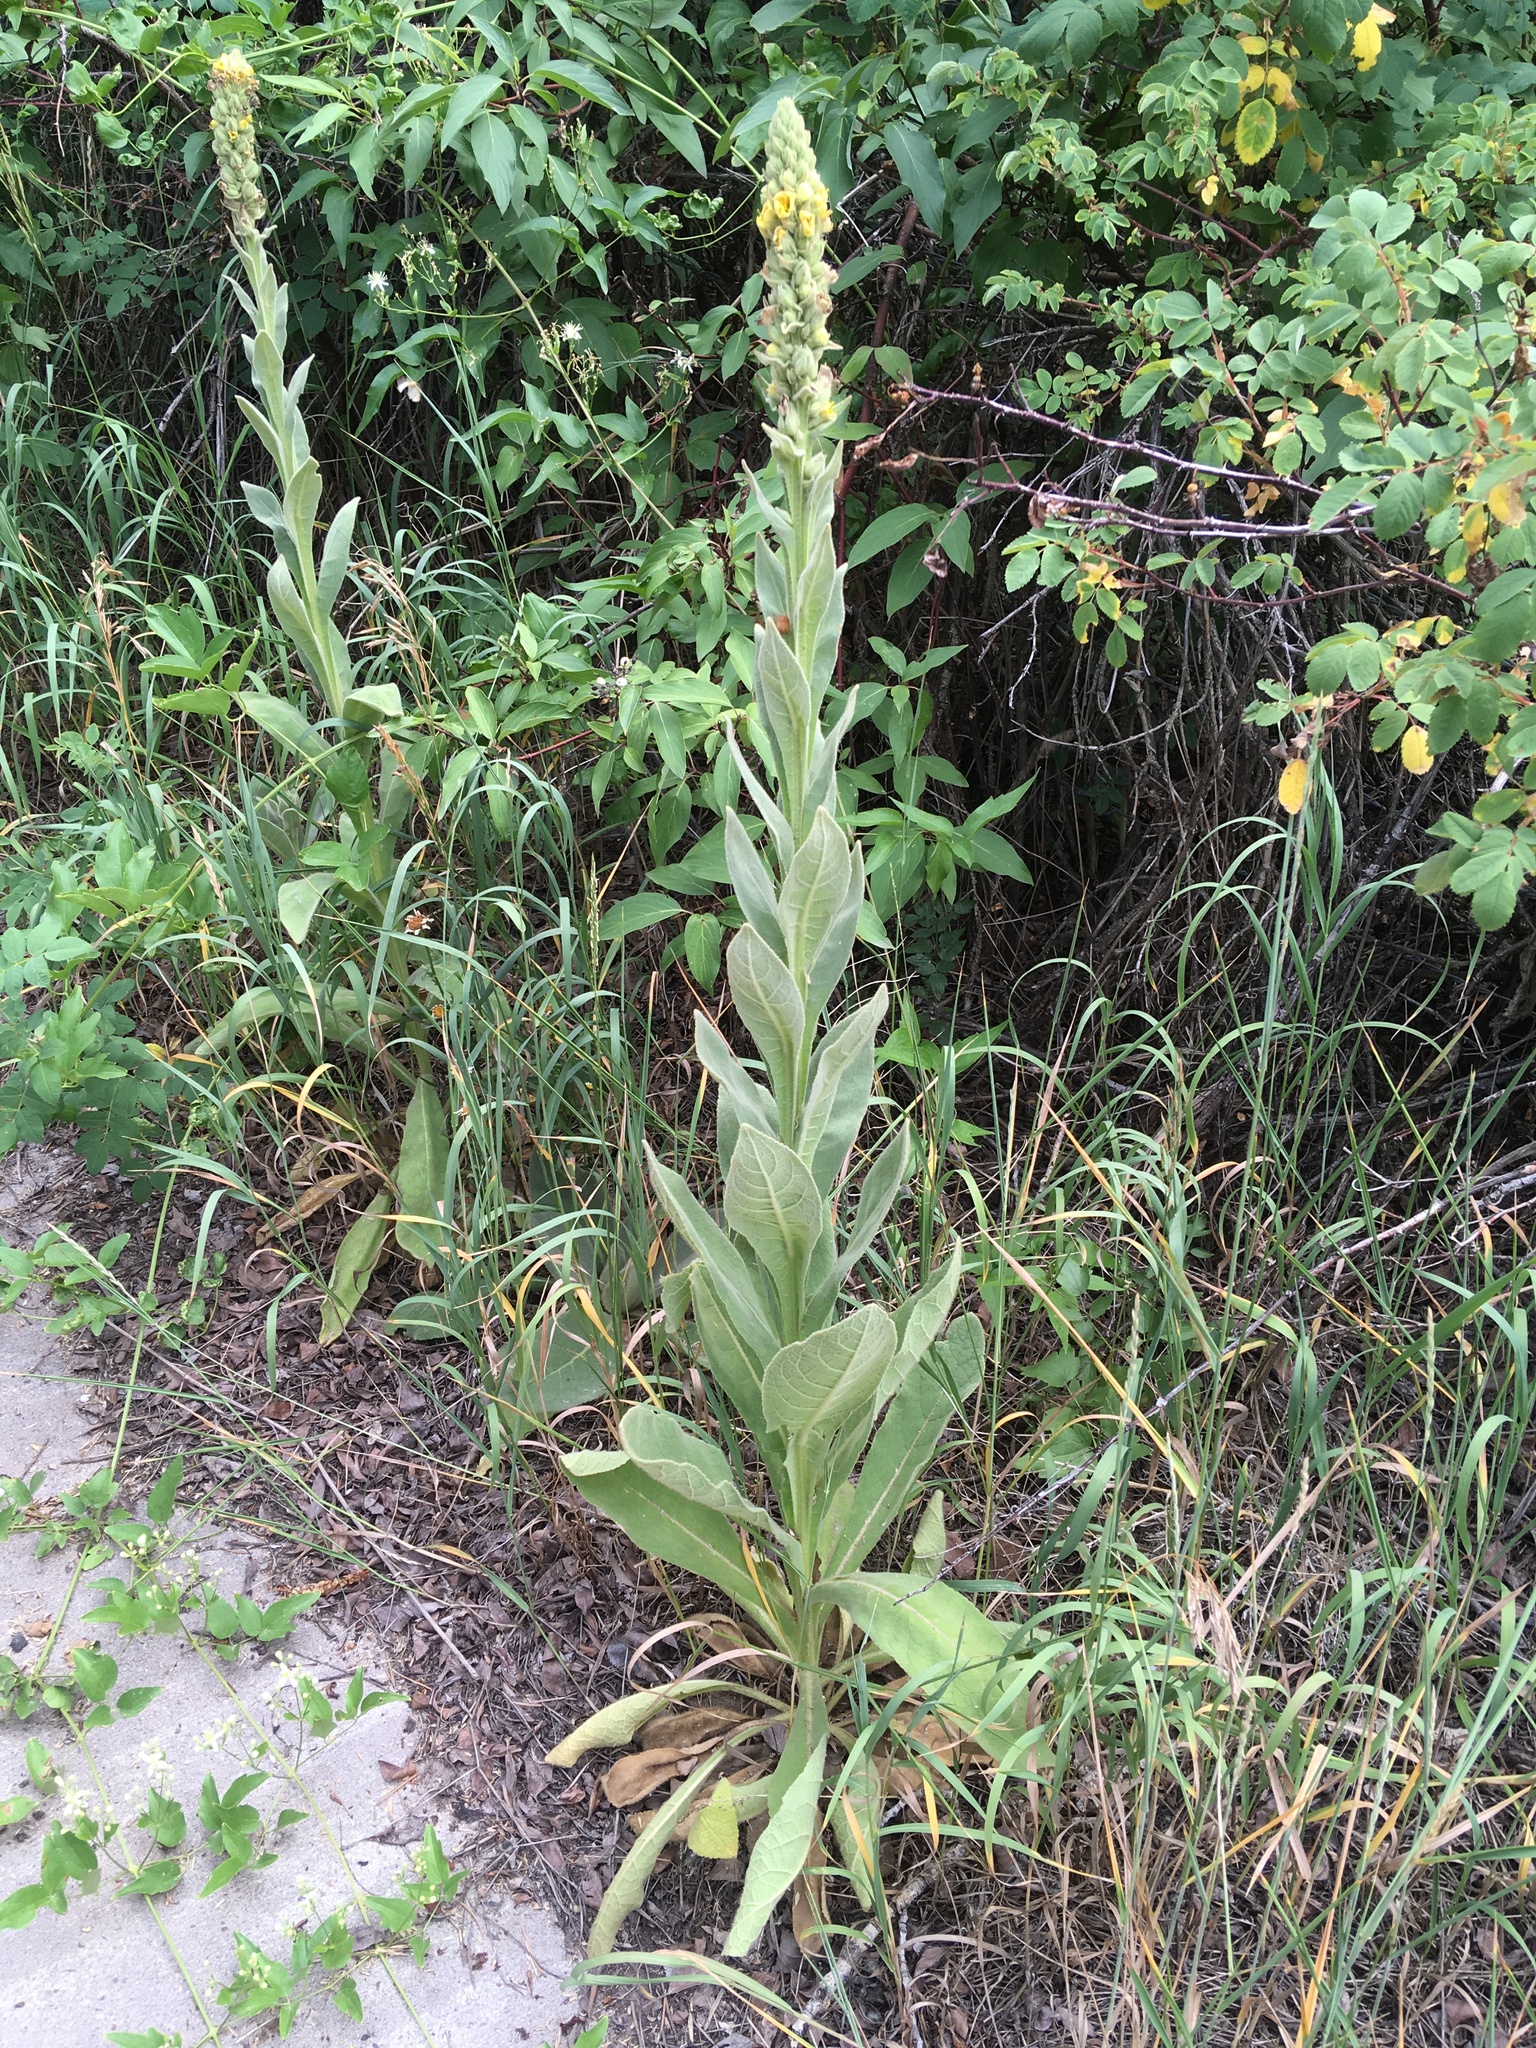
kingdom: Plantae
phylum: Tracheophyta
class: Magnoliopsida
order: Lamiales
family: Scrophulariaceae
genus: Verbascum
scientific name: Verbascum thapsus
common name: Common mullein
